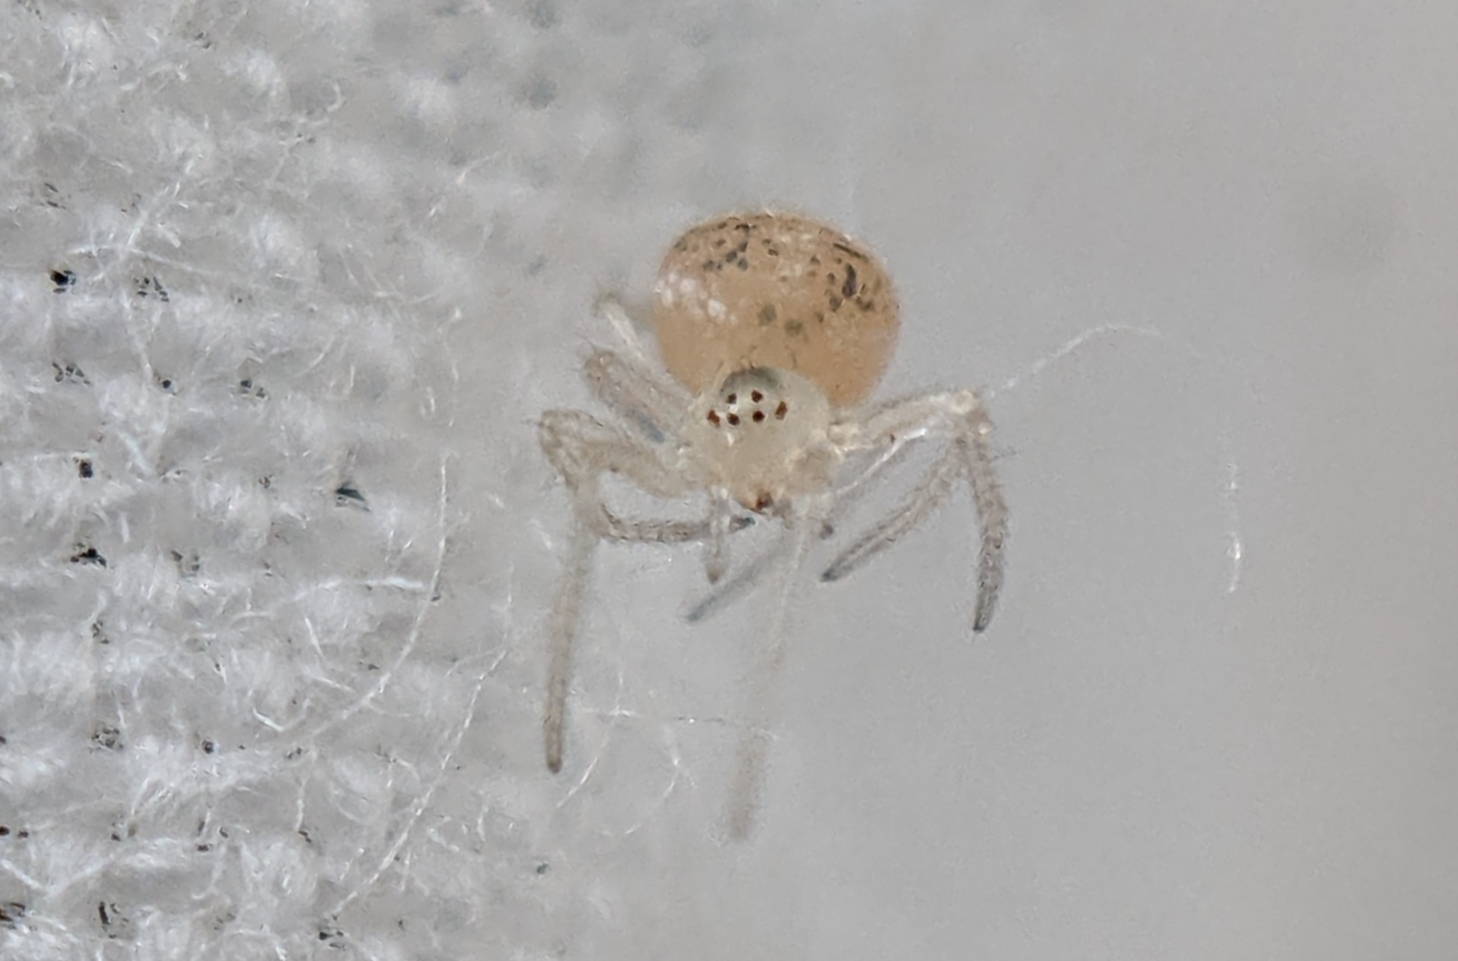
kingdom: Animalia
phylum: Arthropoda
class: Arachnida
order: Araneae
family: Theridiidae
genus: Paidiscura
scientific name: Paidiscura pallens
